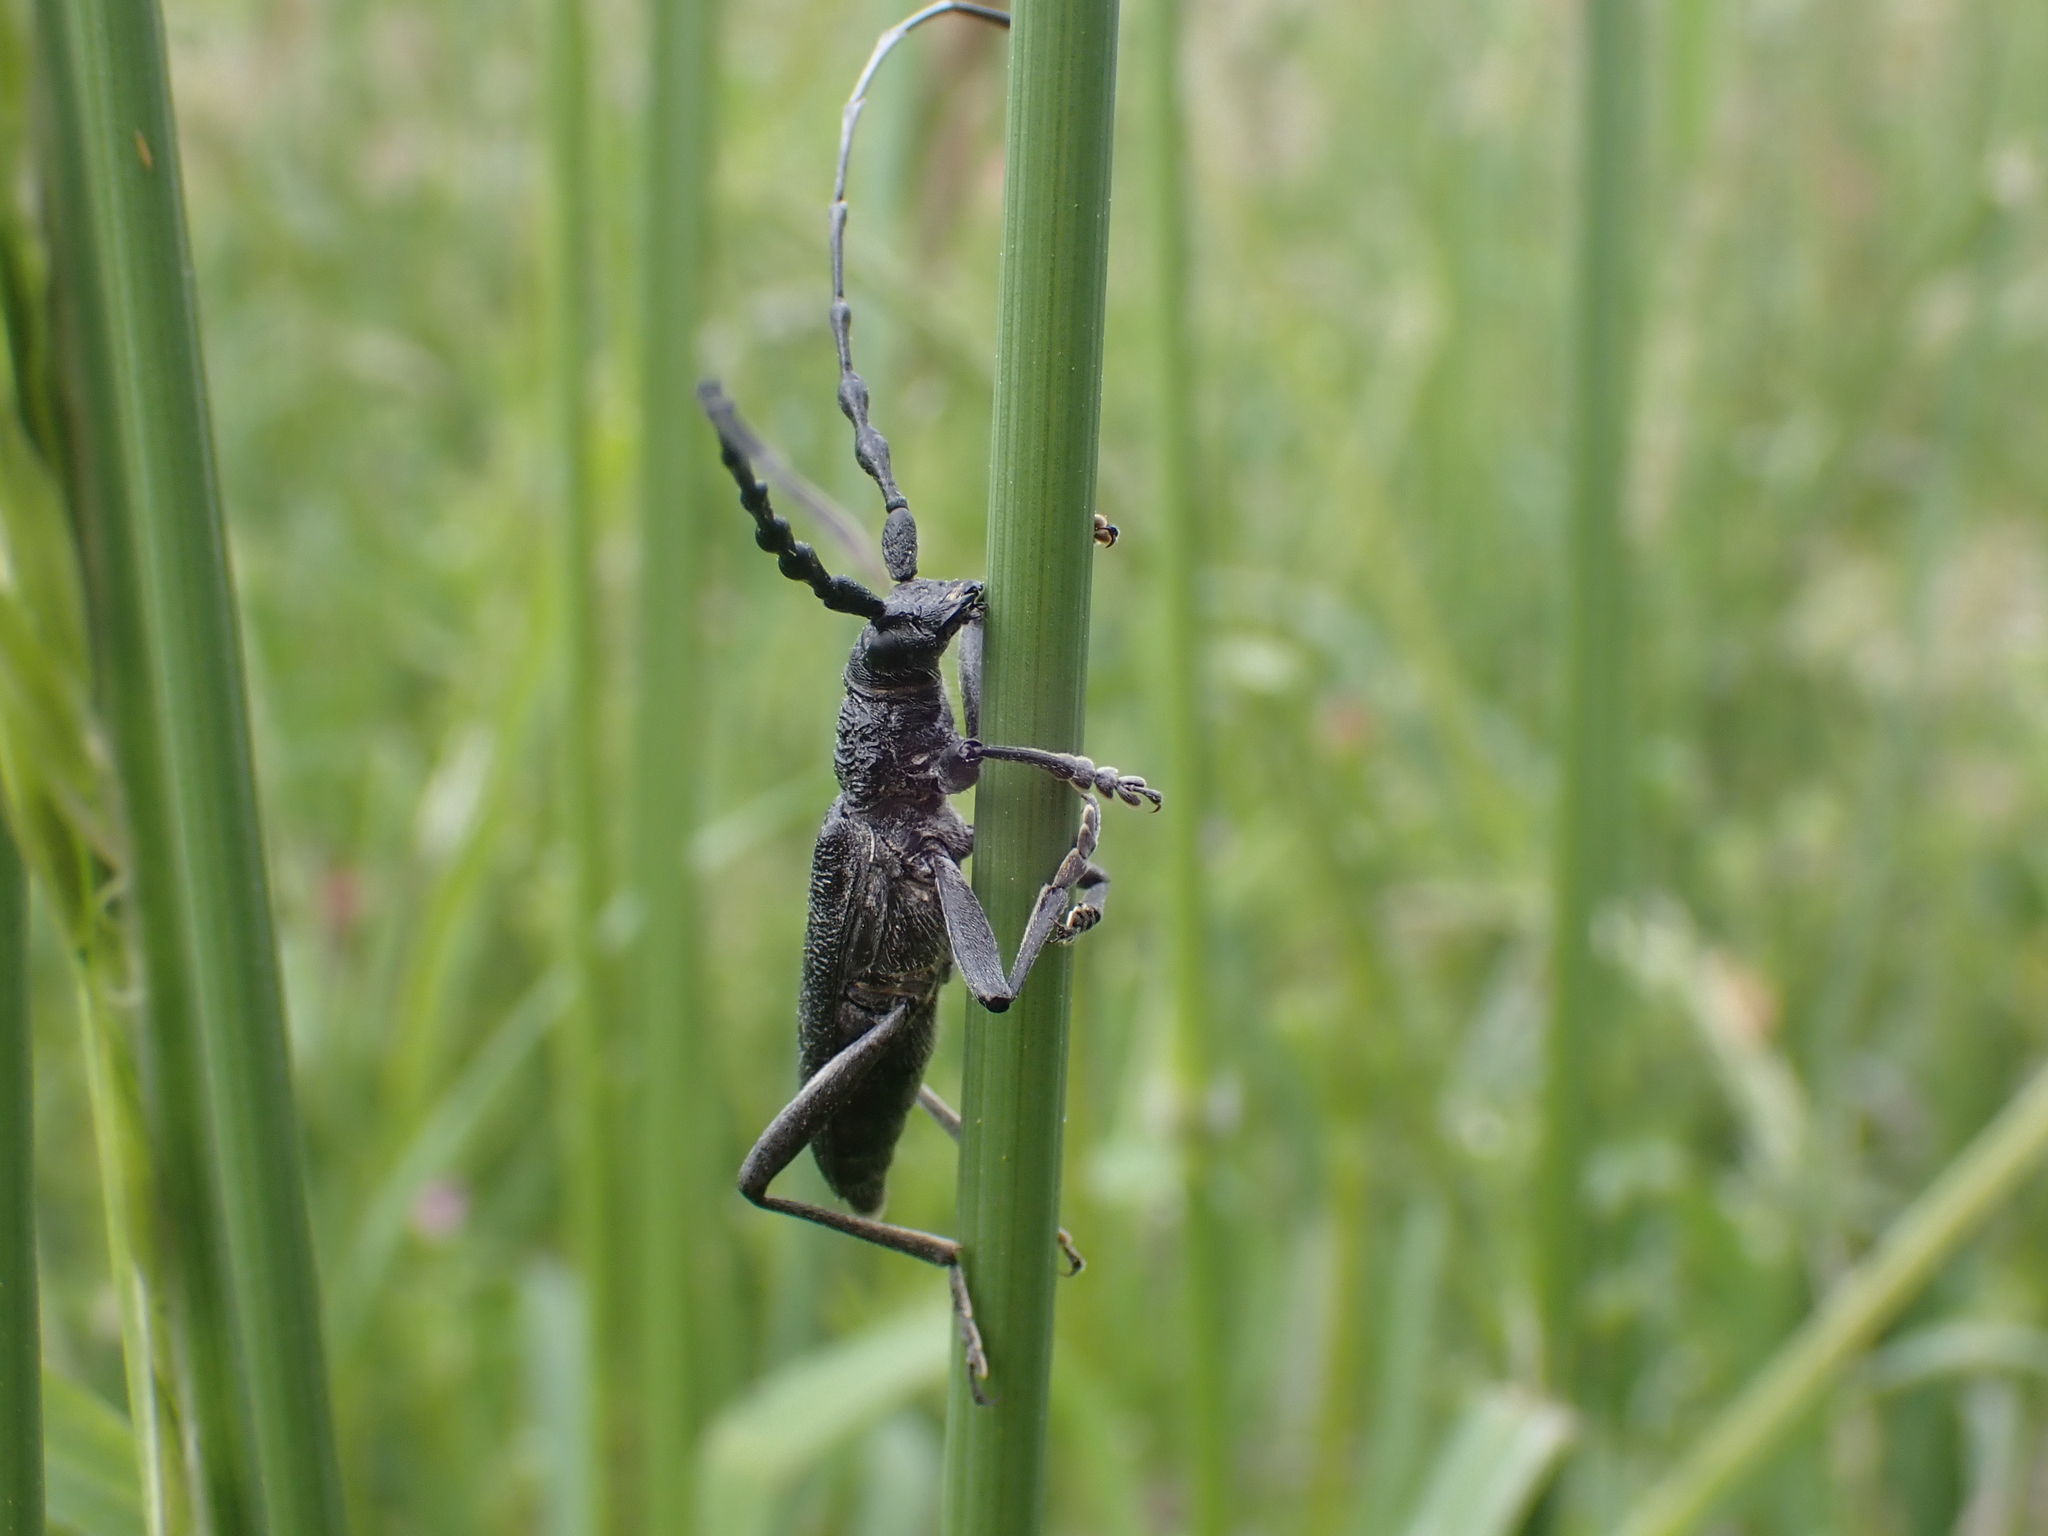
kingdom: Animalia
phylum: Arthropoda
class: Insecta
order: Coleoptera
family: Cerambycidae
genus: Cerambyx
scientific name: Cerambyx scopolii
